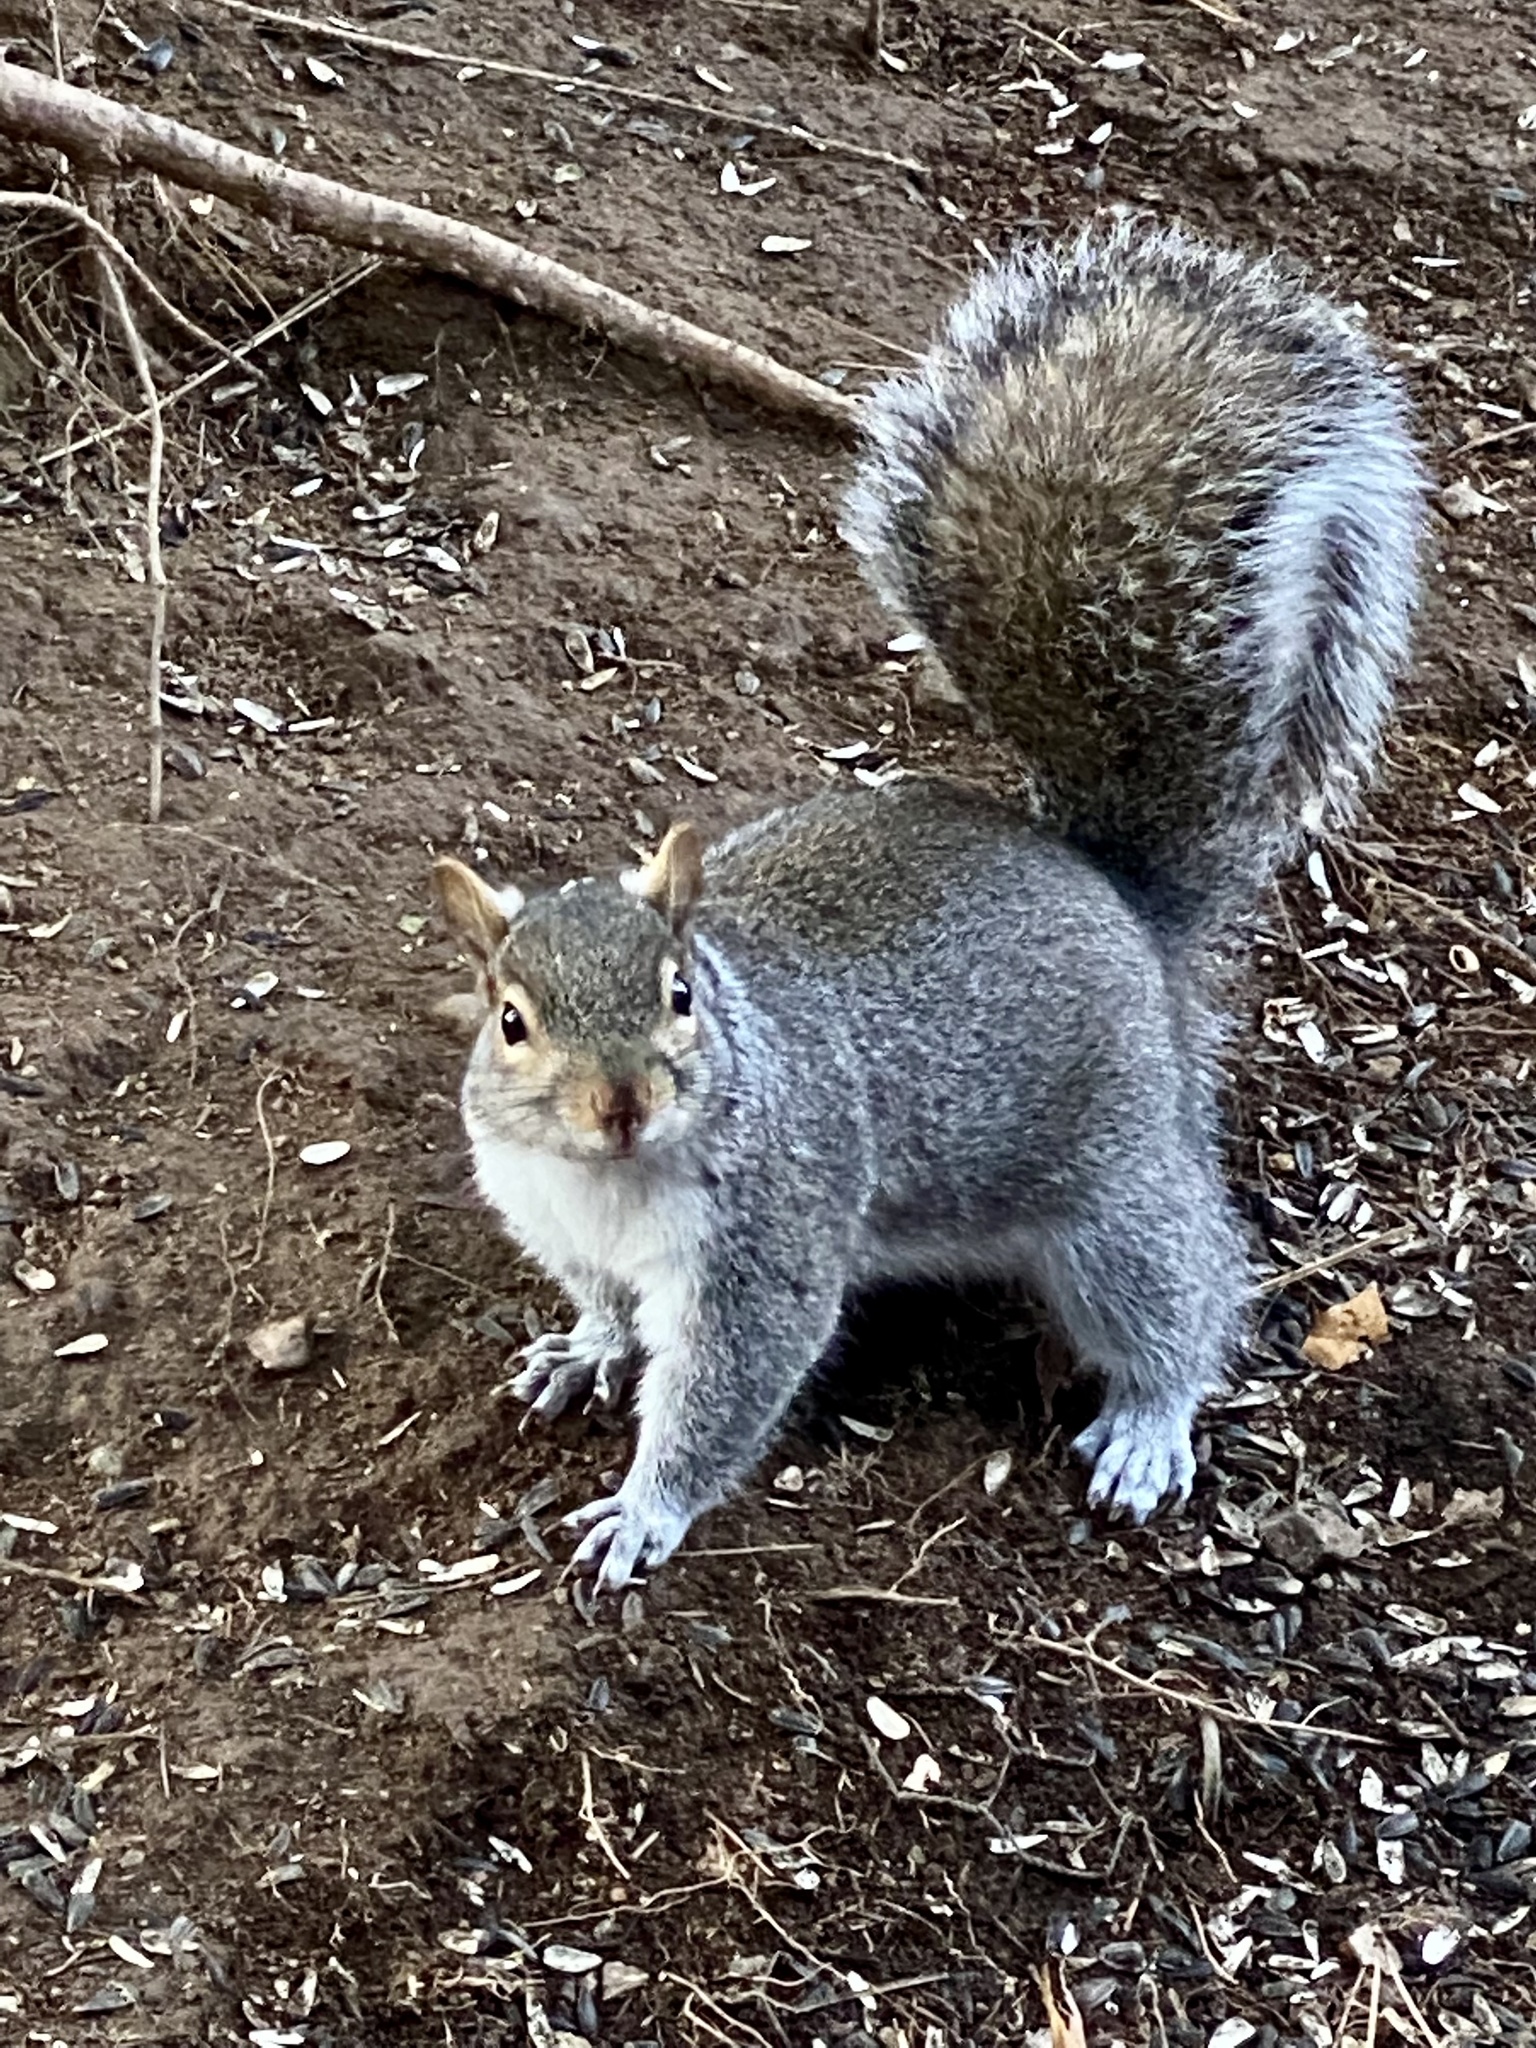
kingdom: Animalia
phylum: Chordata
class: Mammalia
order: Rodentia
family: Sciuridae
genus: Sciurus
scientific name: Sciurus carolinensis
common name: Eastern gray squirrel
